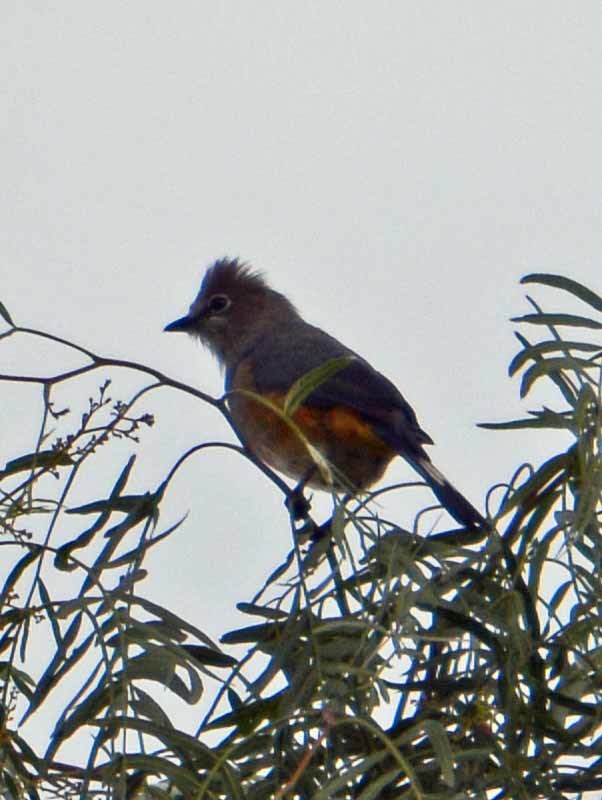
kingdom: Animalia
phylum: Chordata
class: Aves
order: Passeriformes
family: Ptilogonatidae
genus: Ptilogonys
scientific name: Ptilogonys cinereus
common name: Gray silky-flycatcher
